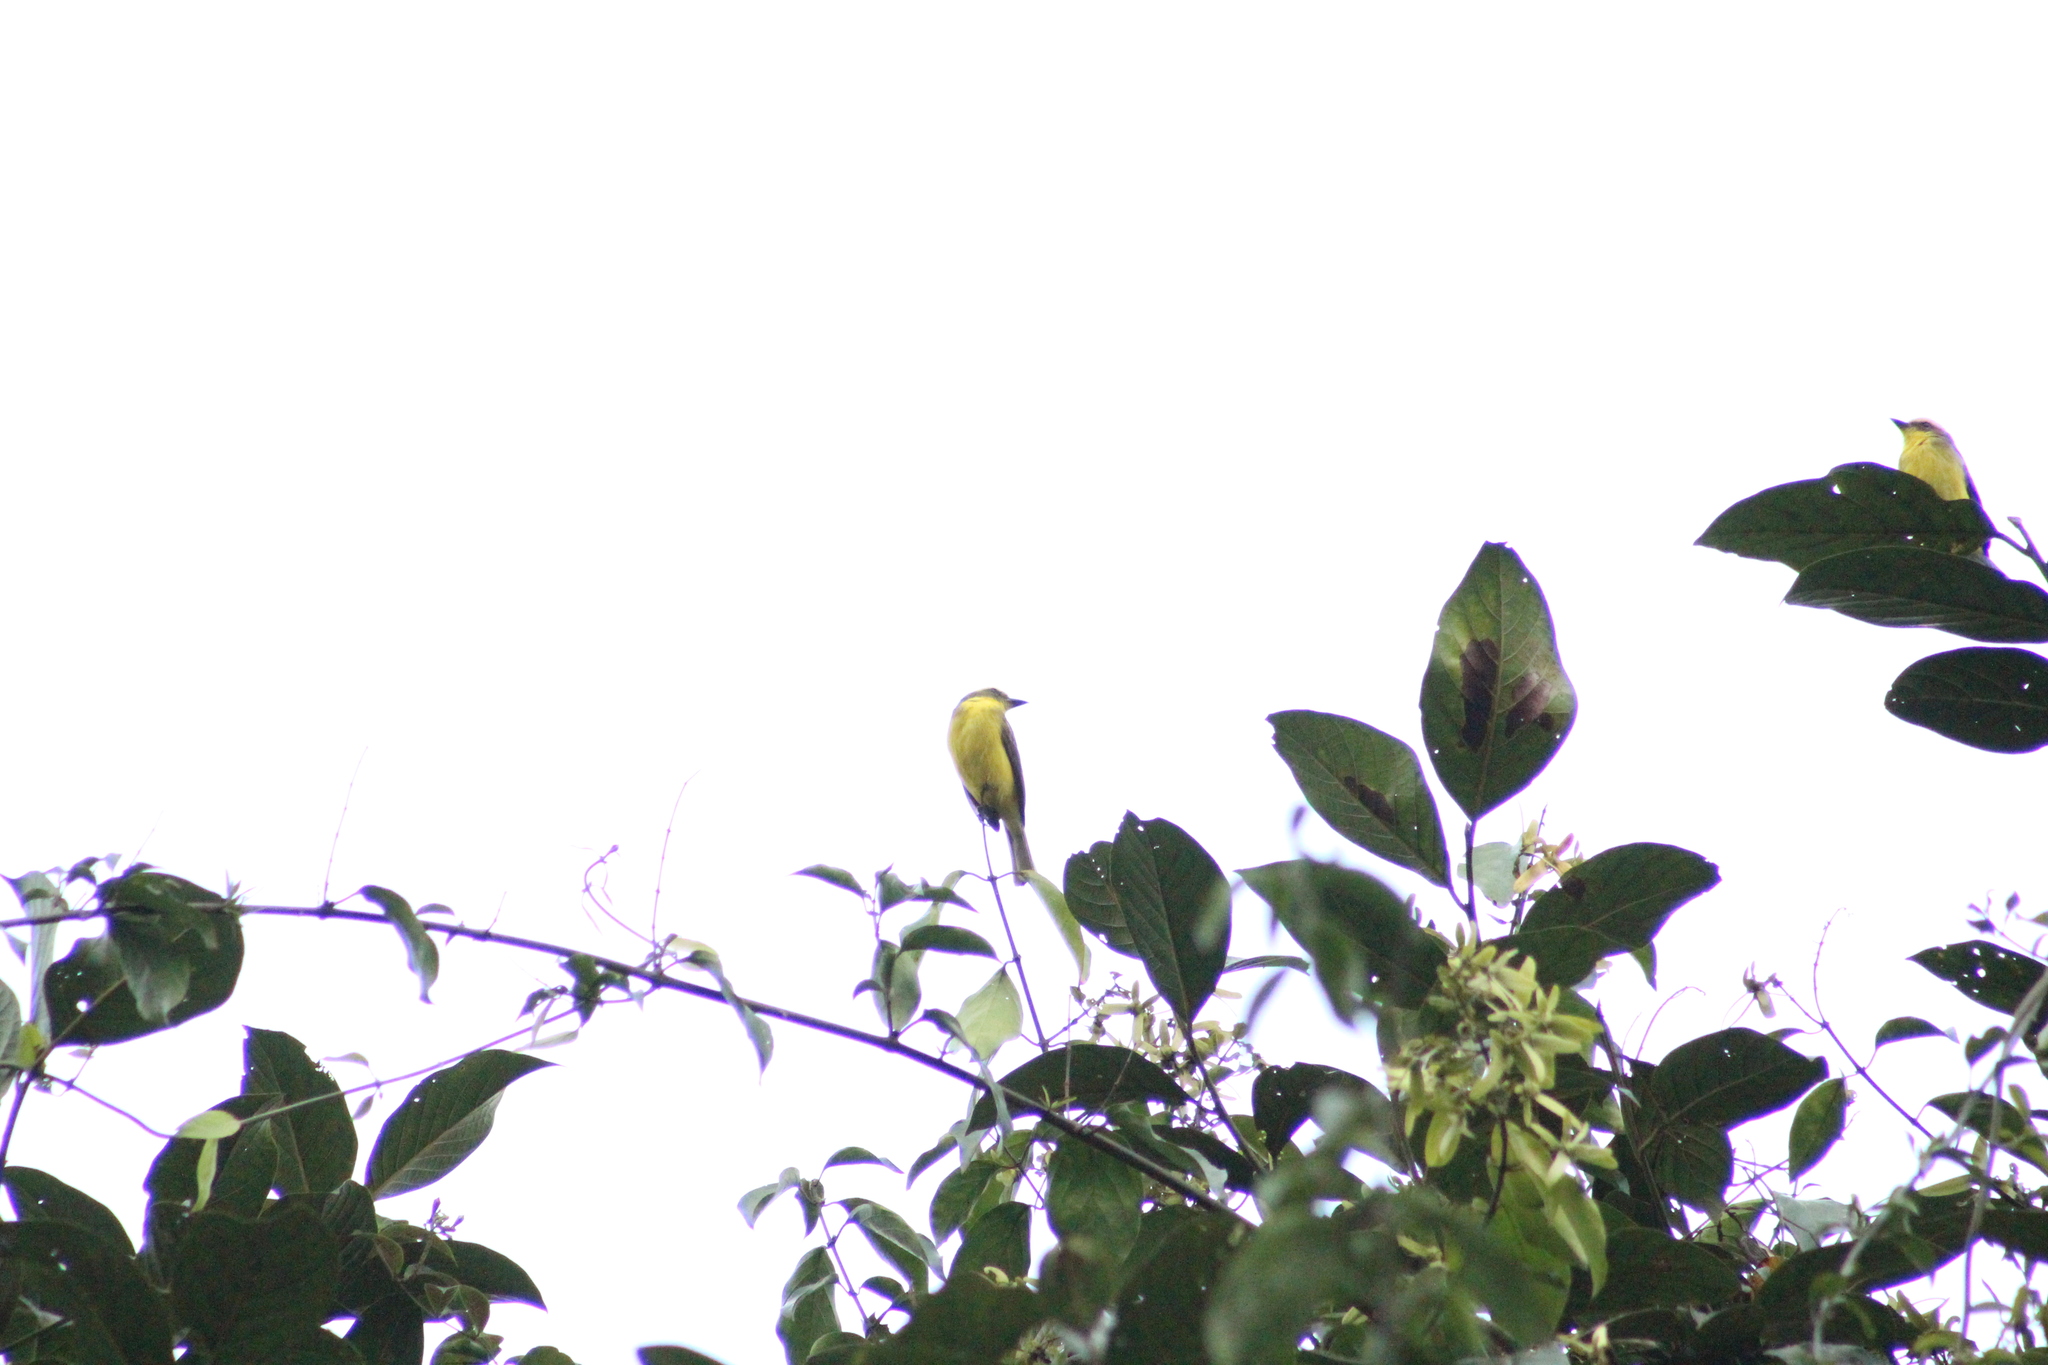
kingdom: Animalia
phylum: Chordata
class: Aves
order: Passeriformes
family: Tyrannidae
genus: Conopias
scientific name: Conopias cinchoneti
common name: Lemon-browed flycatcher
